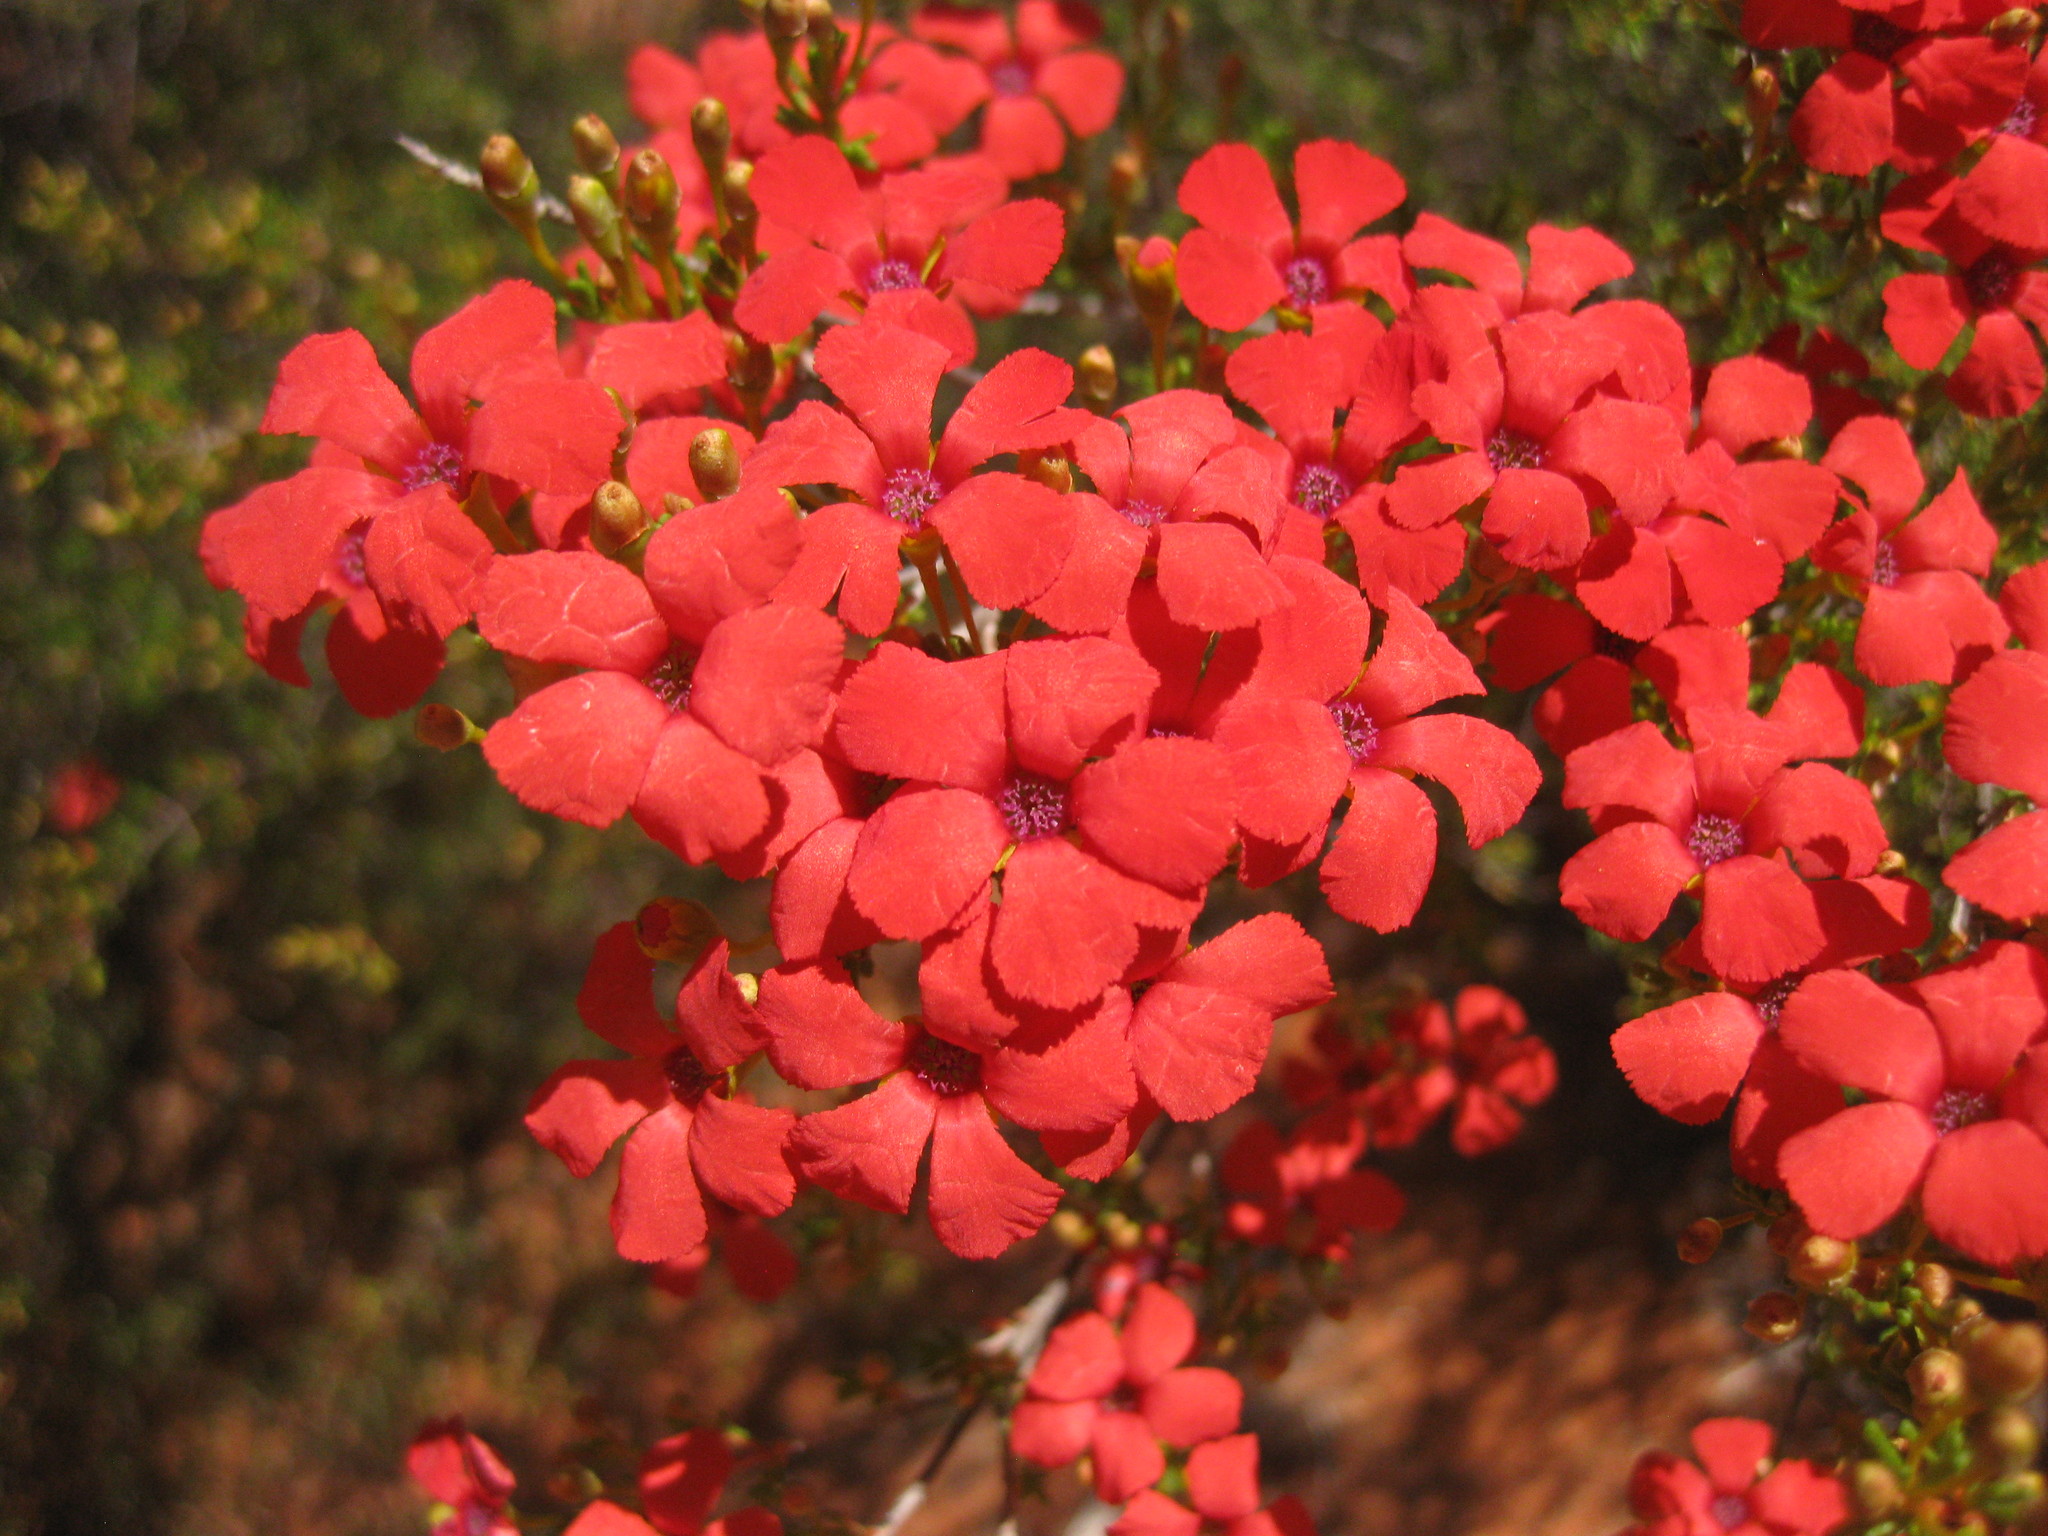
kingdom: Plantae
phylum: Tracheophyta
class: Magnoliopsida
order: Myrtales
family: Myrtaceae
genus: Pileanthus
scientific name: Pileanthus vernicosus
